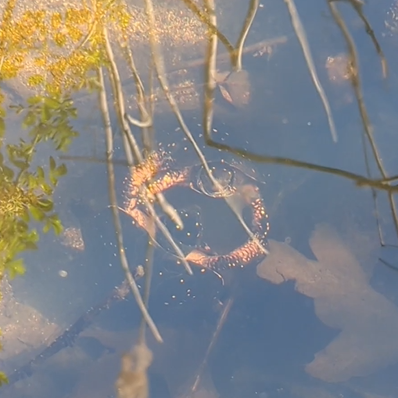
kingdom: Animalia
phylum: Chordata
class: Testudines
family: Emydidae
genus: Clemmys
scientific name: Clemmys guttata
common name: Spotted turtle
